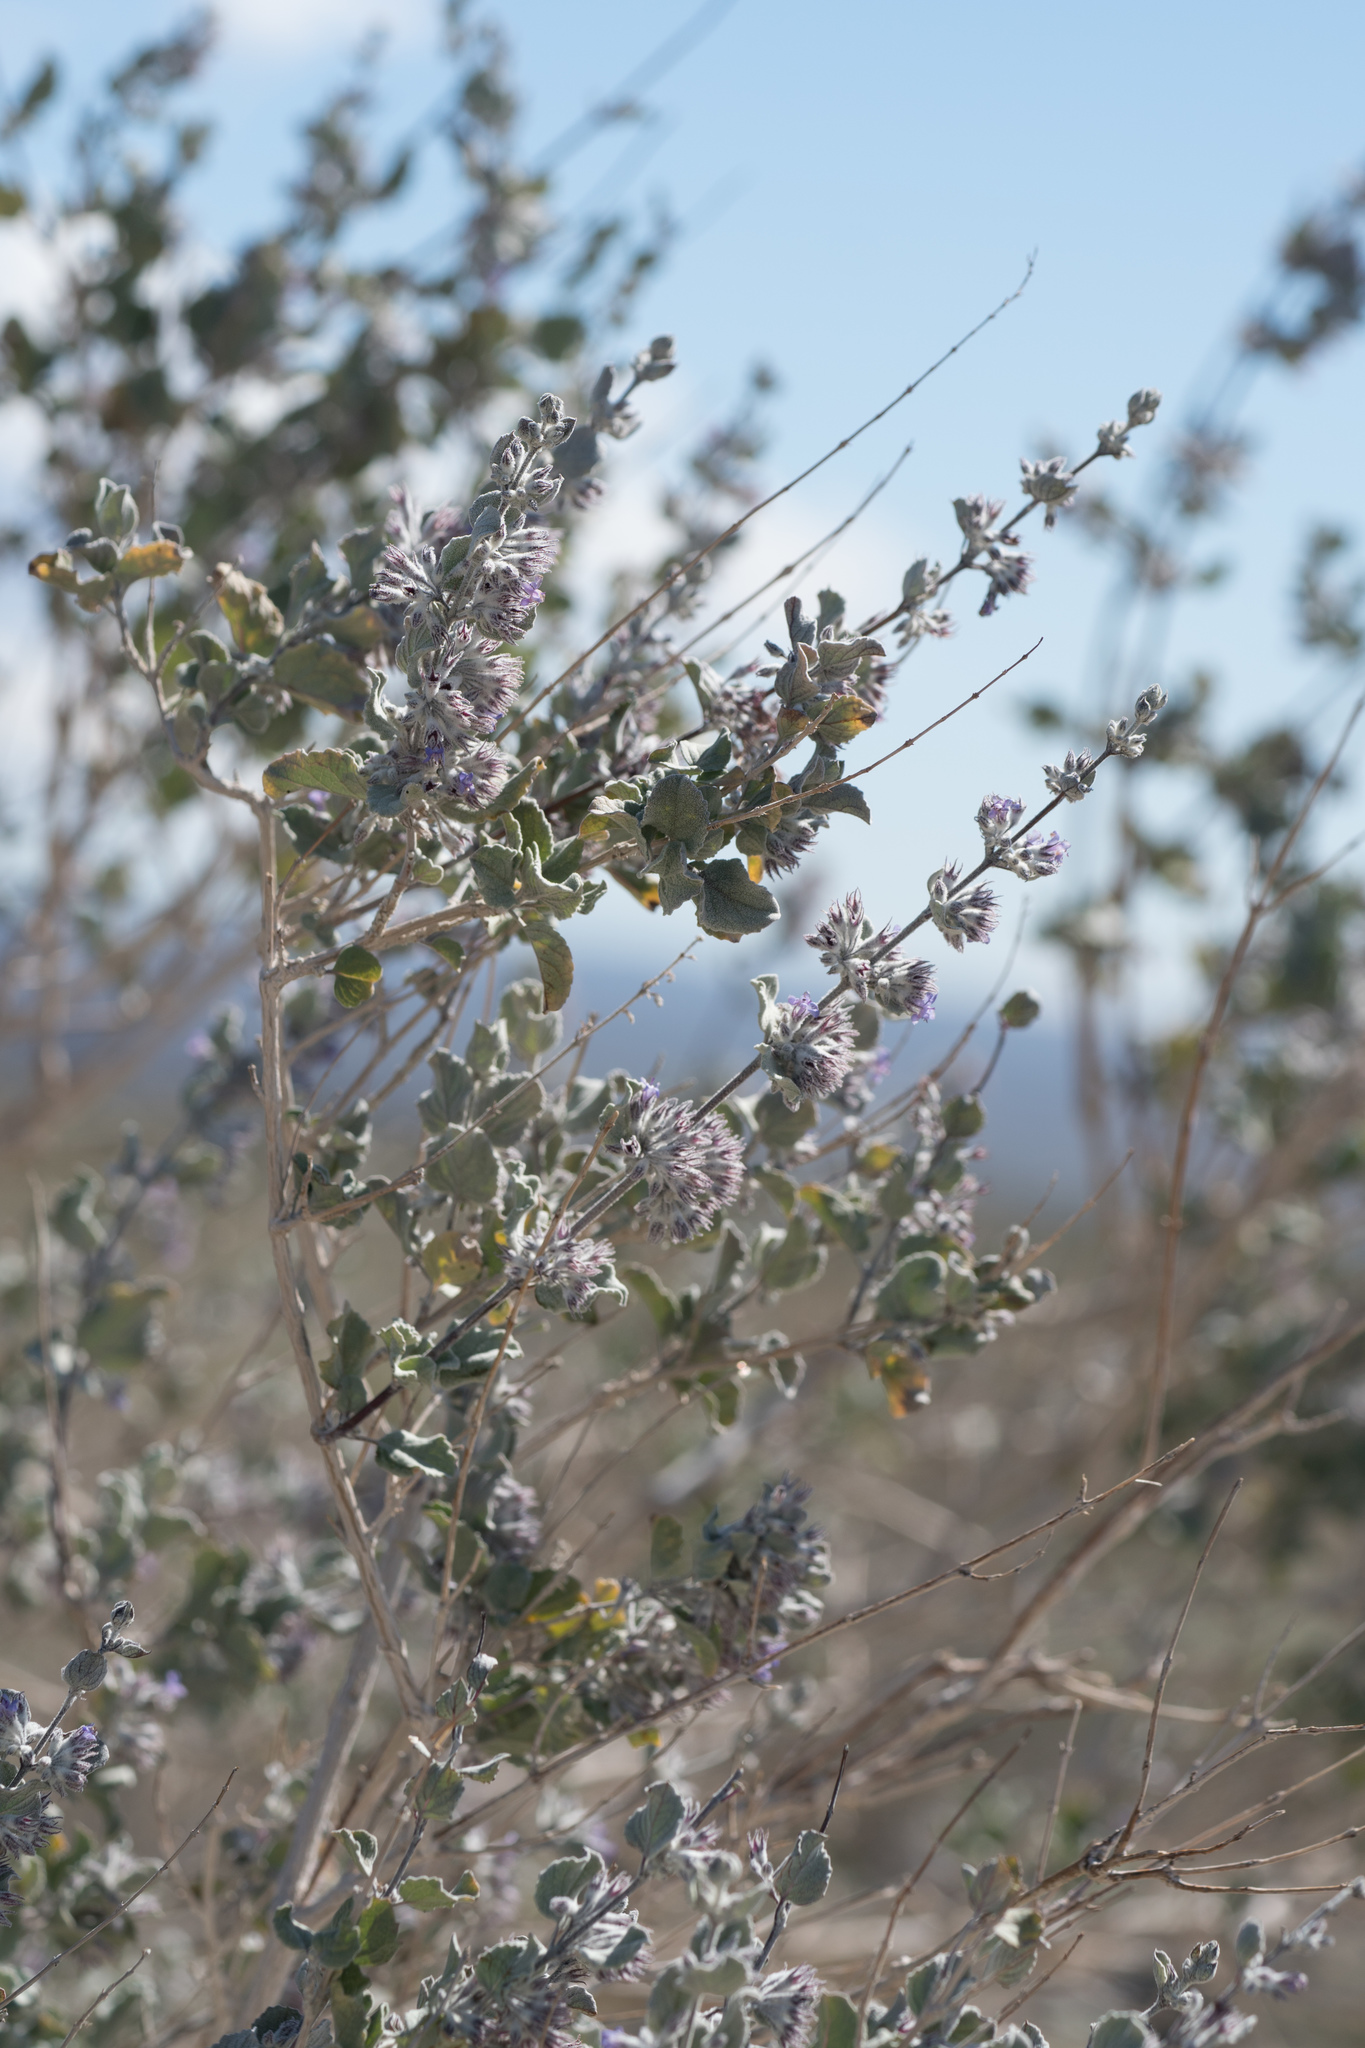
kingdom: Plantae
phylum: Tracheophyta
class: Magnoliopsida
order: Lamiales
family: Lamiaceae
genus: Condea
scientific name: Condea emoryi
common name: Chia
